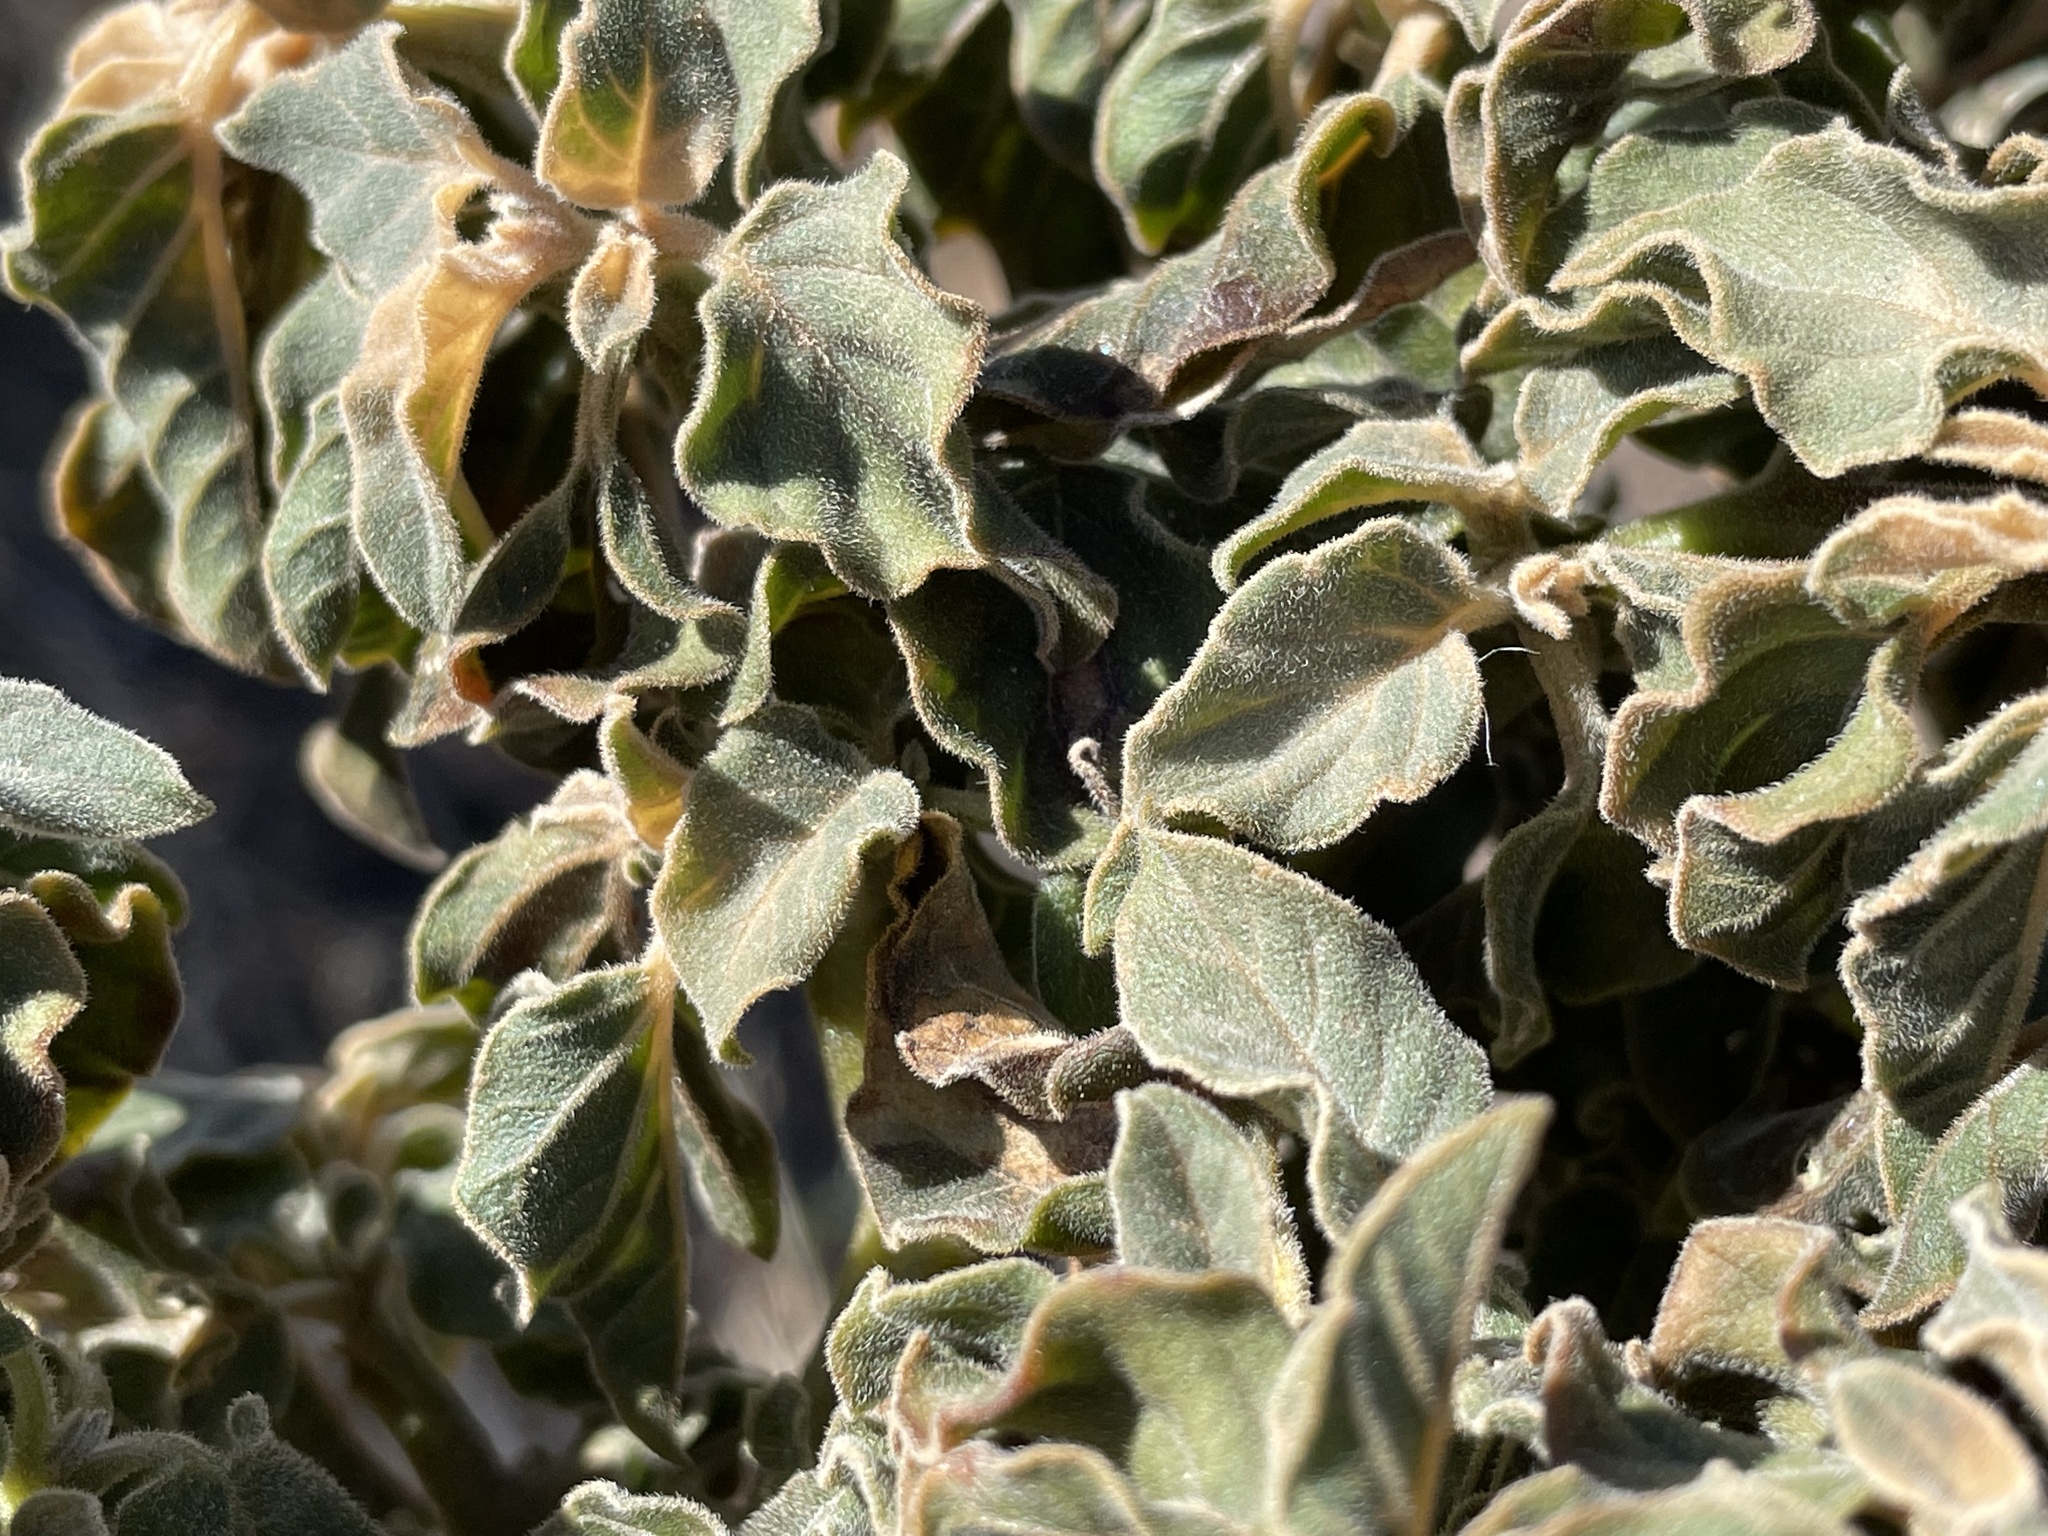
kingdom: Plantae
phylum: Tracheophyta
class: Magnoliopsida
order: Solanales
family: Solanaceae
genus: Datura
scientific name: Datura discolor
